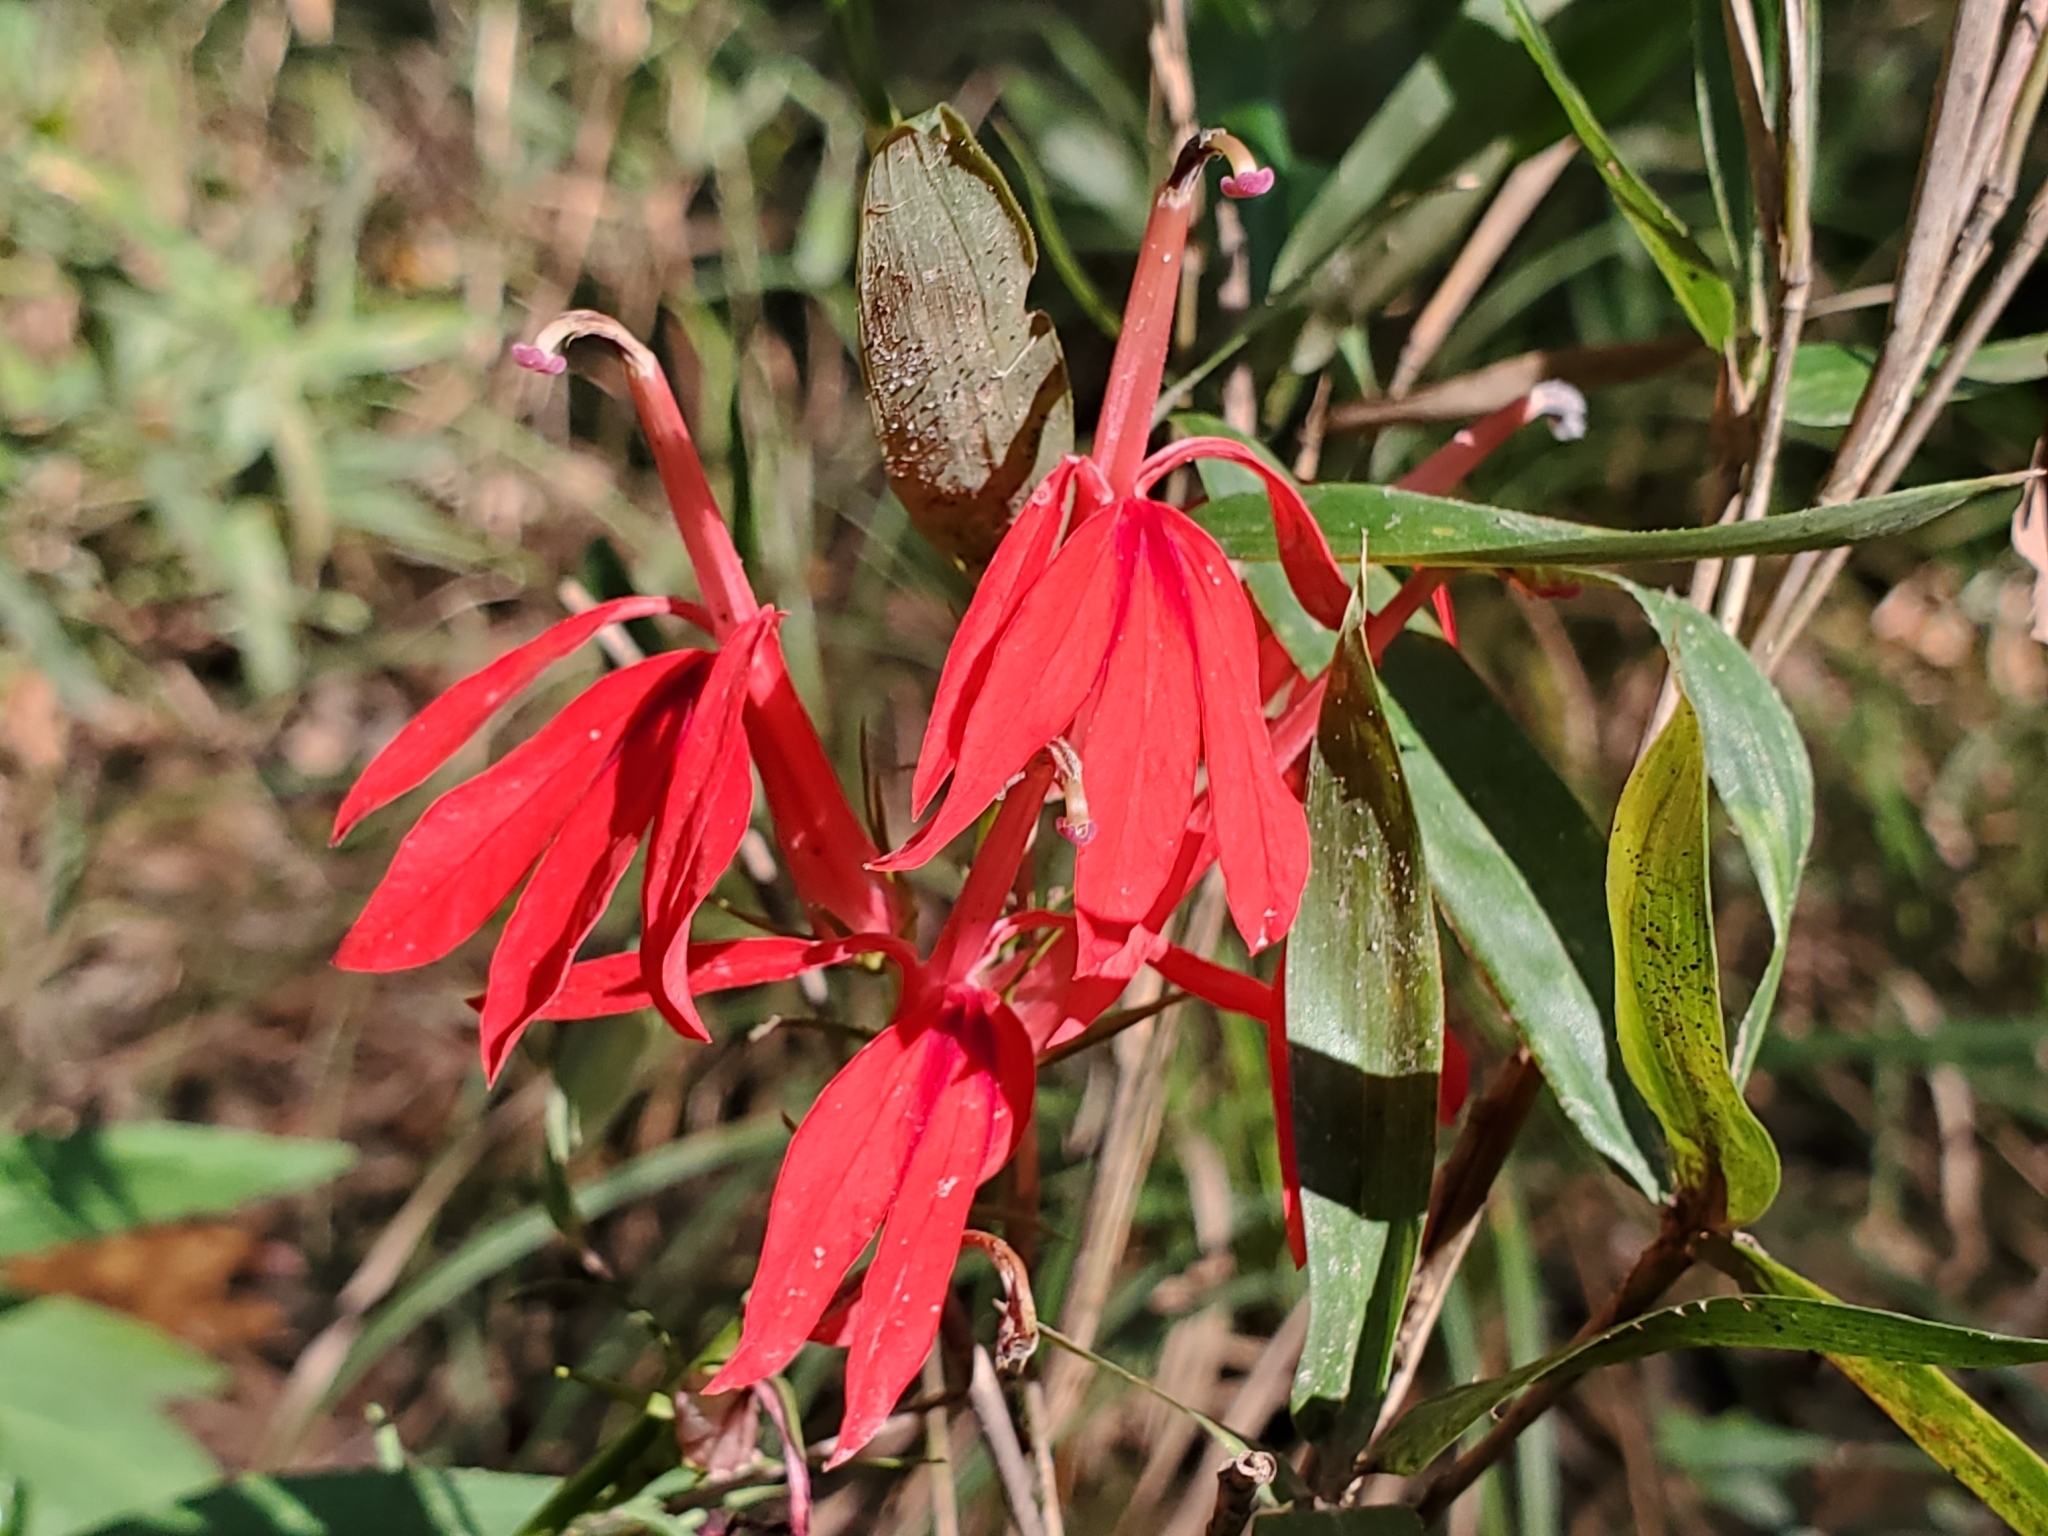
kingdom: Plantae
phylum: Tracheophyta
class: Magnoliopsida
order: Asterales
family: Campanulaceae
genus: Lobelia
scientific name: Lobelia cardinalis
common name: Cardinal flower
